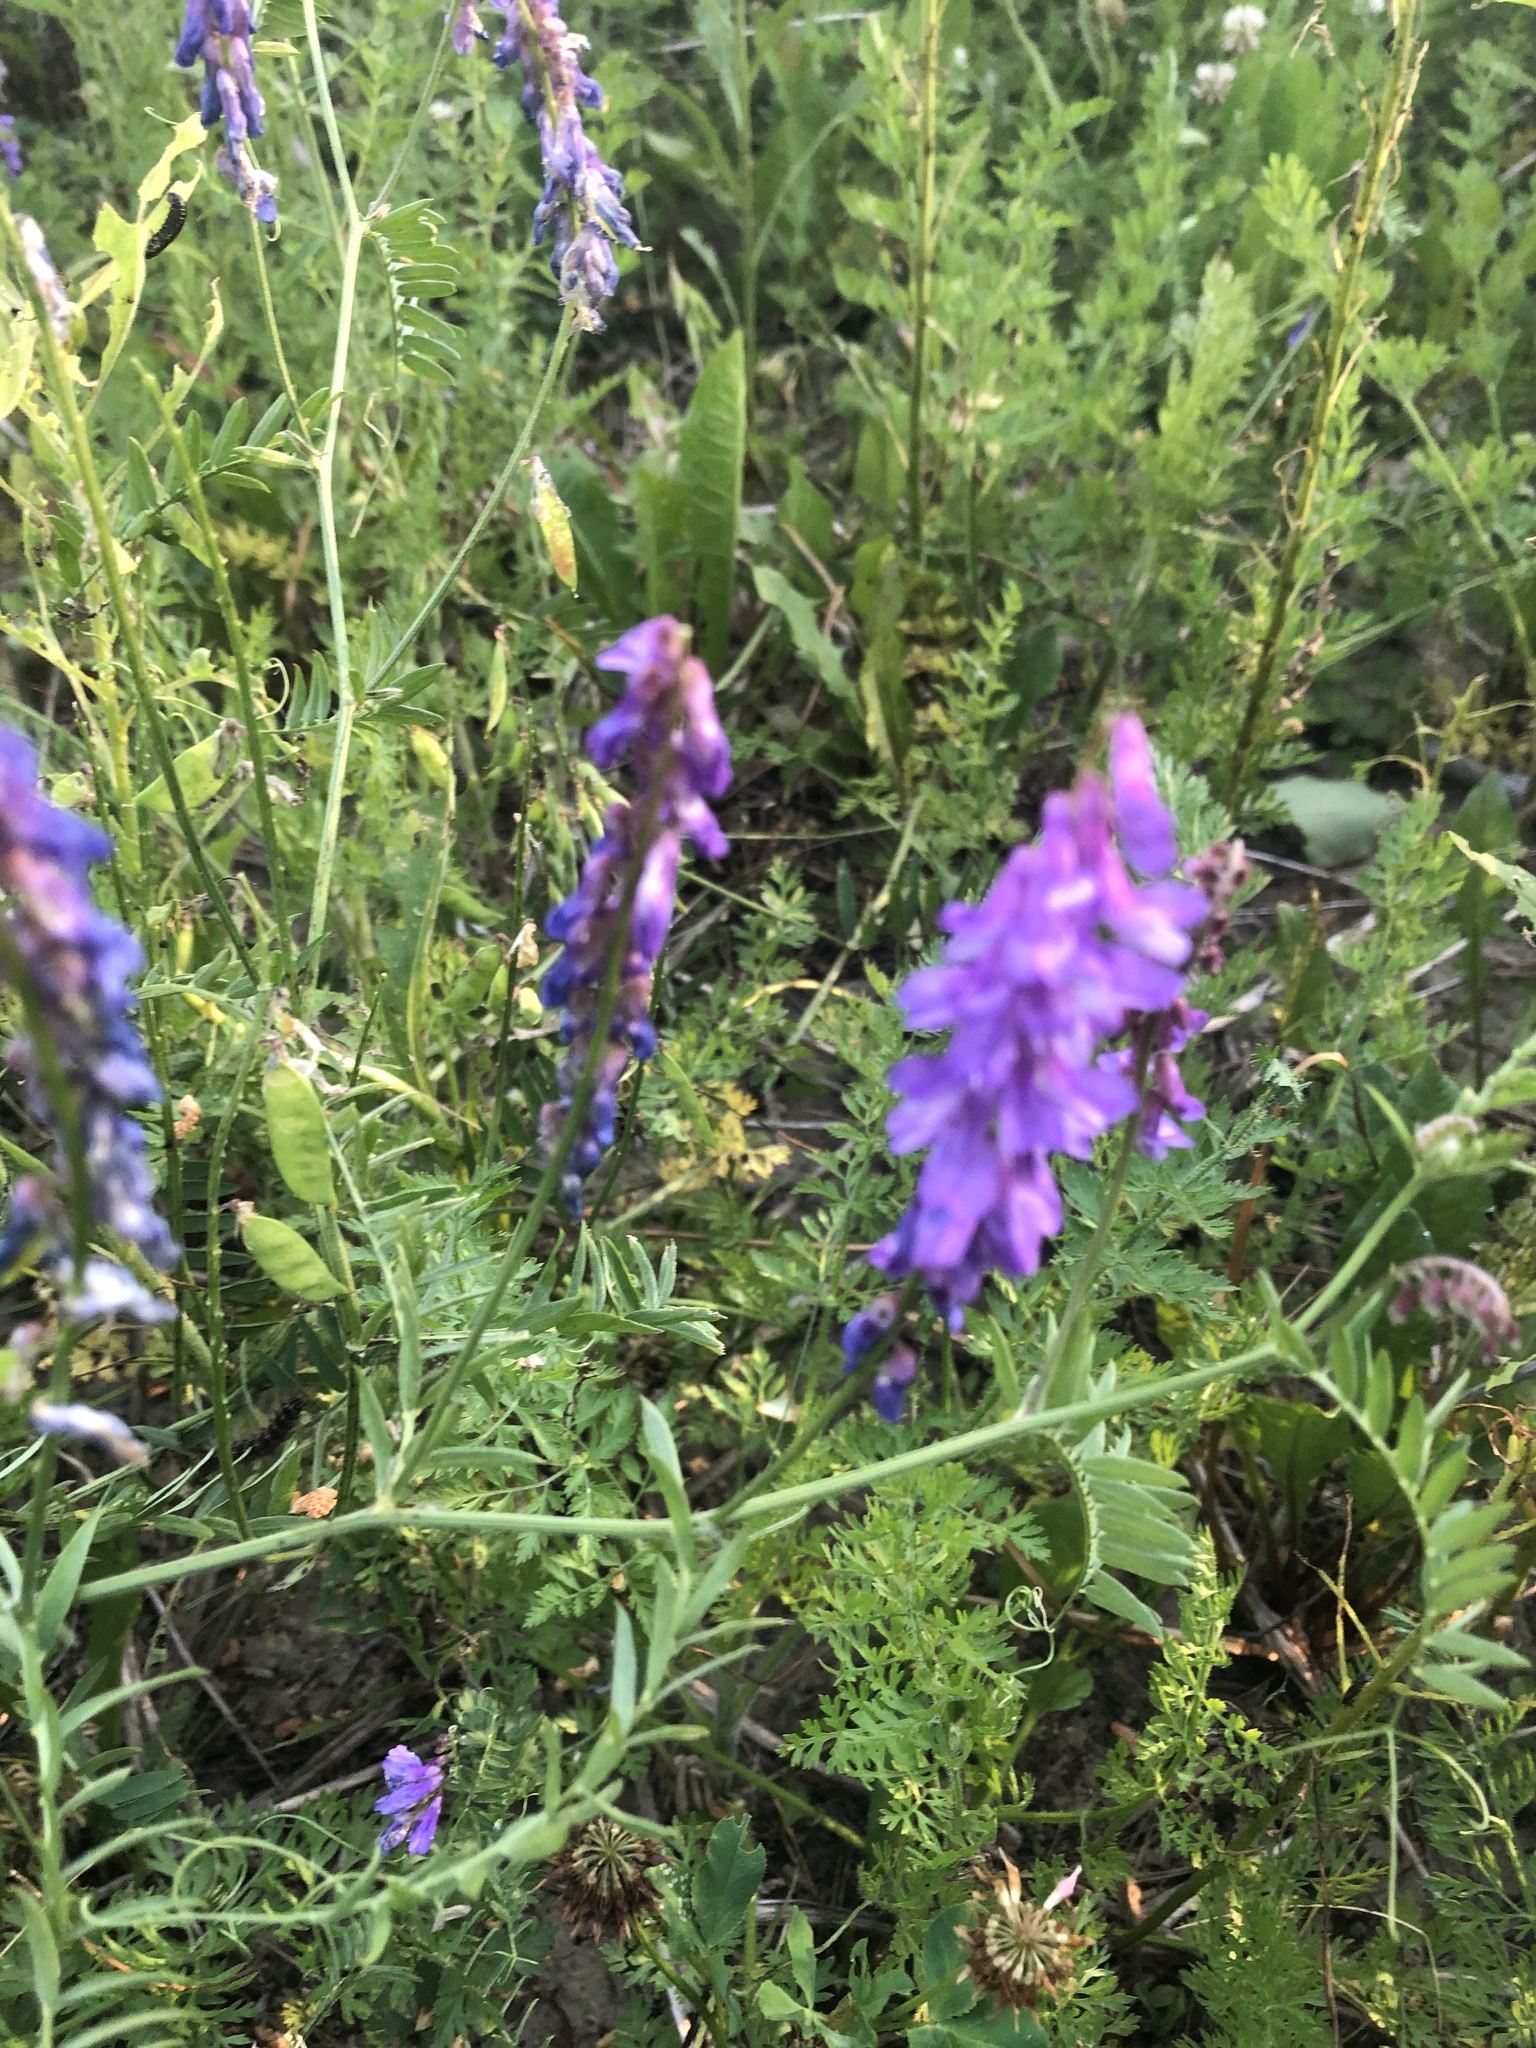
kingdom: Plantae
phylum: Tracheophyta
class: Magnoliopsida
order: Fabales
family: Fabaceae
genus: Vicia
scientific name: Vicia cracca
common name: Bird vetch
